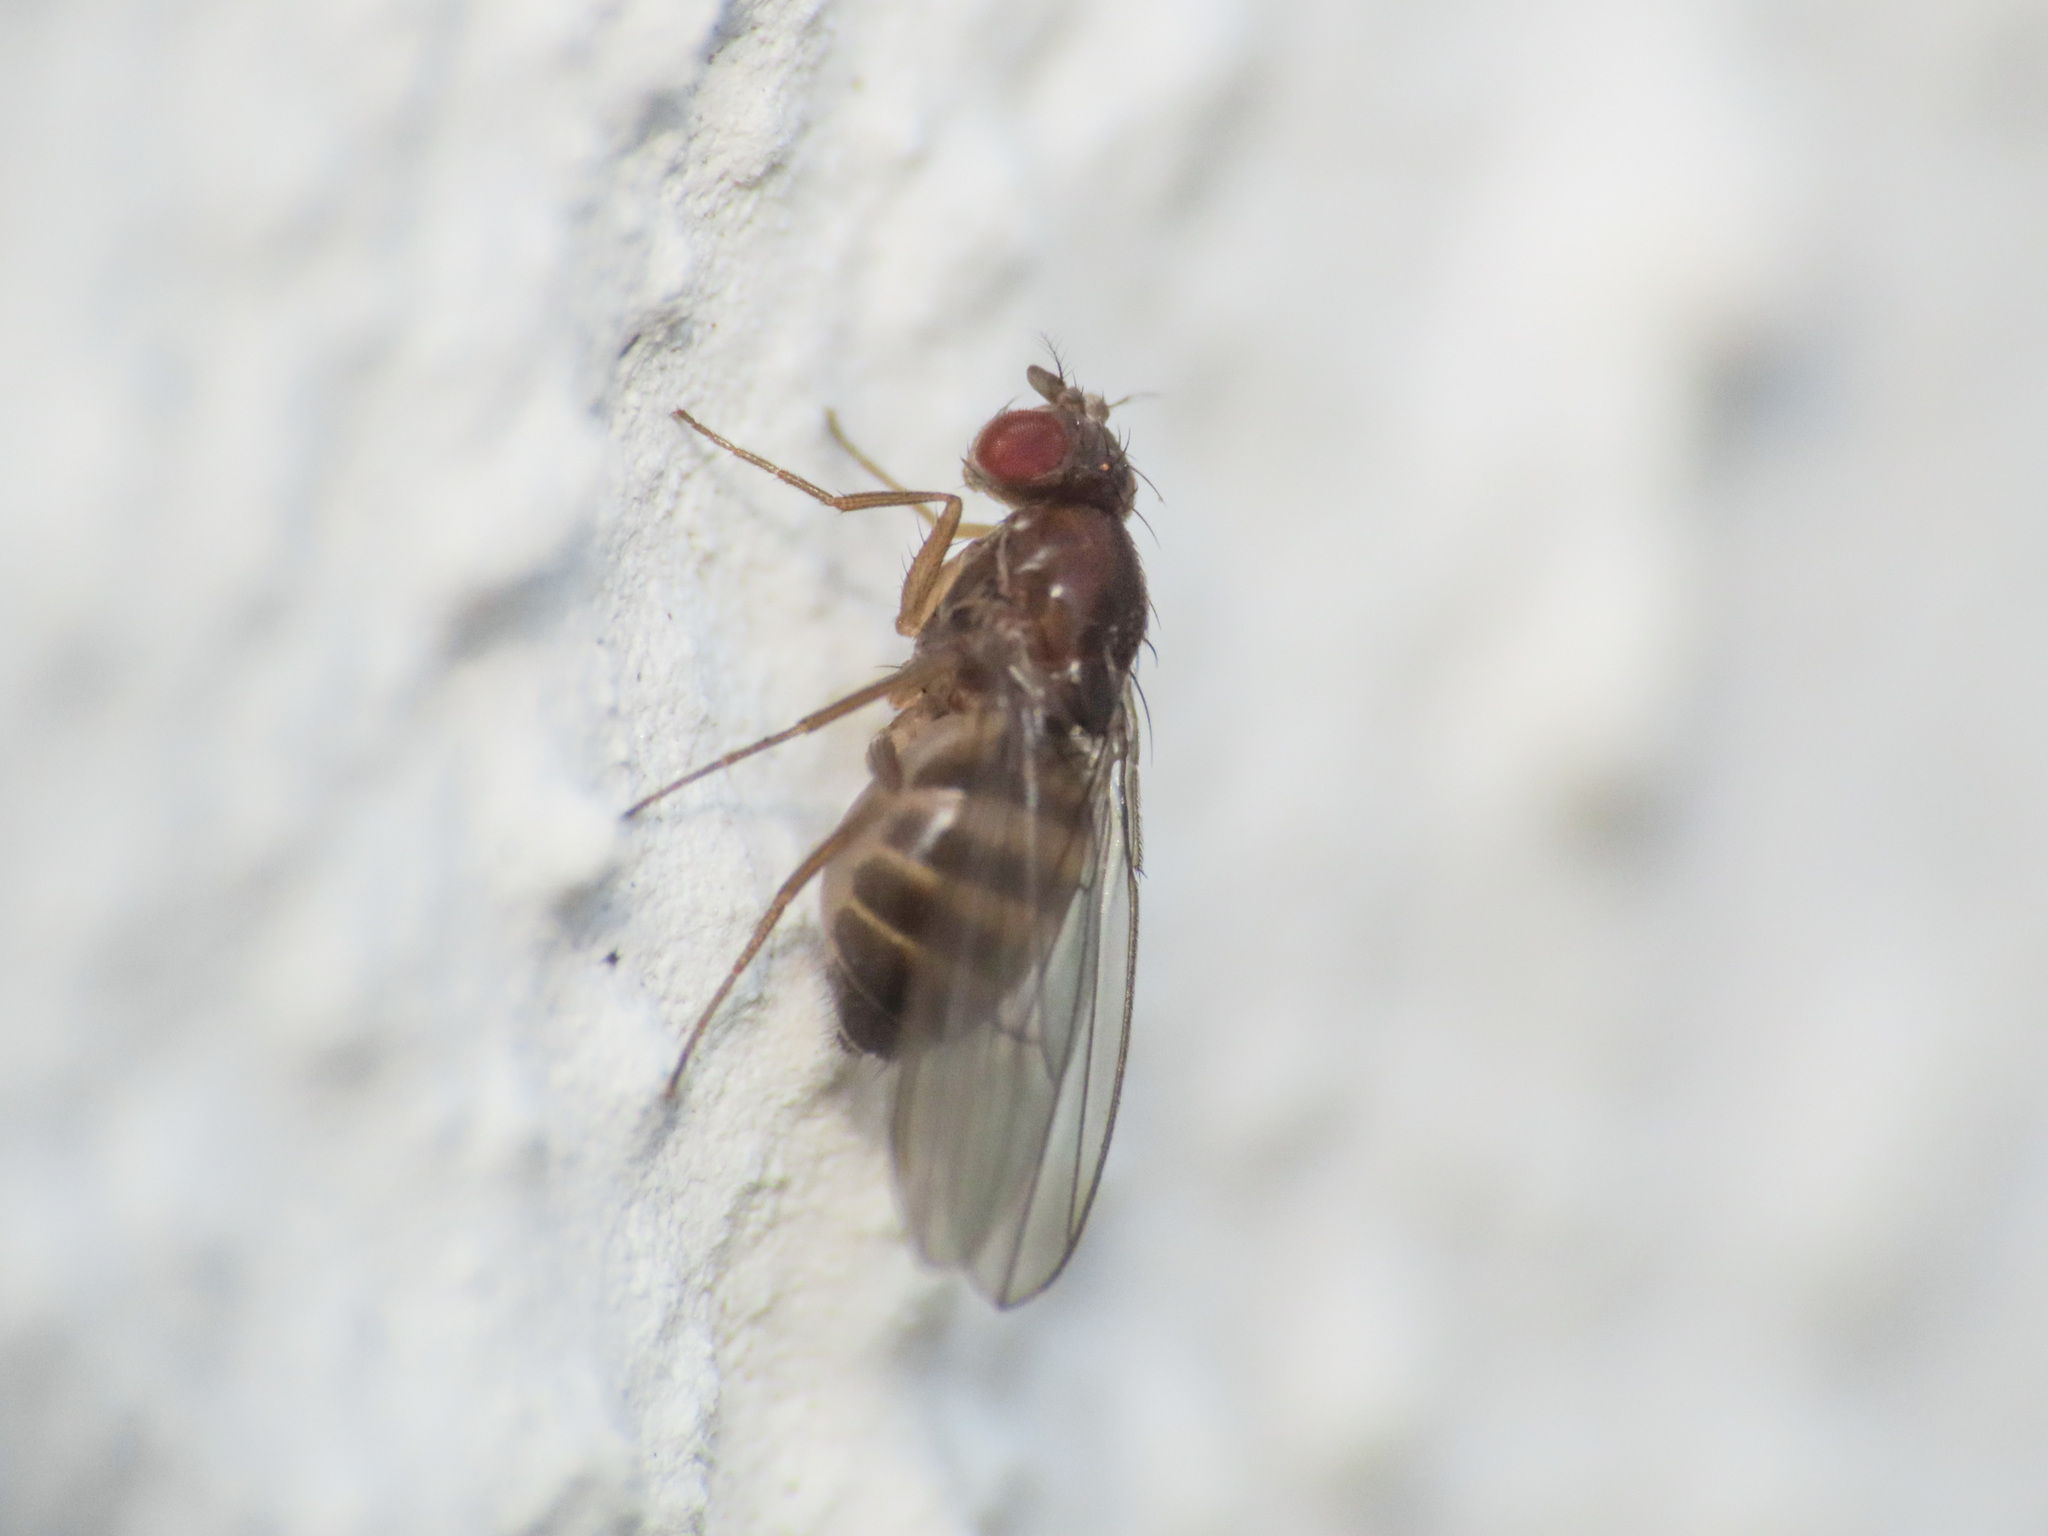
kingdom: Animalia
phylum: Arthropoda
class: Insecta
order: Diptera
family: Drosophilidae
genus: Drosophila
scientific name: Drosophila funebris
